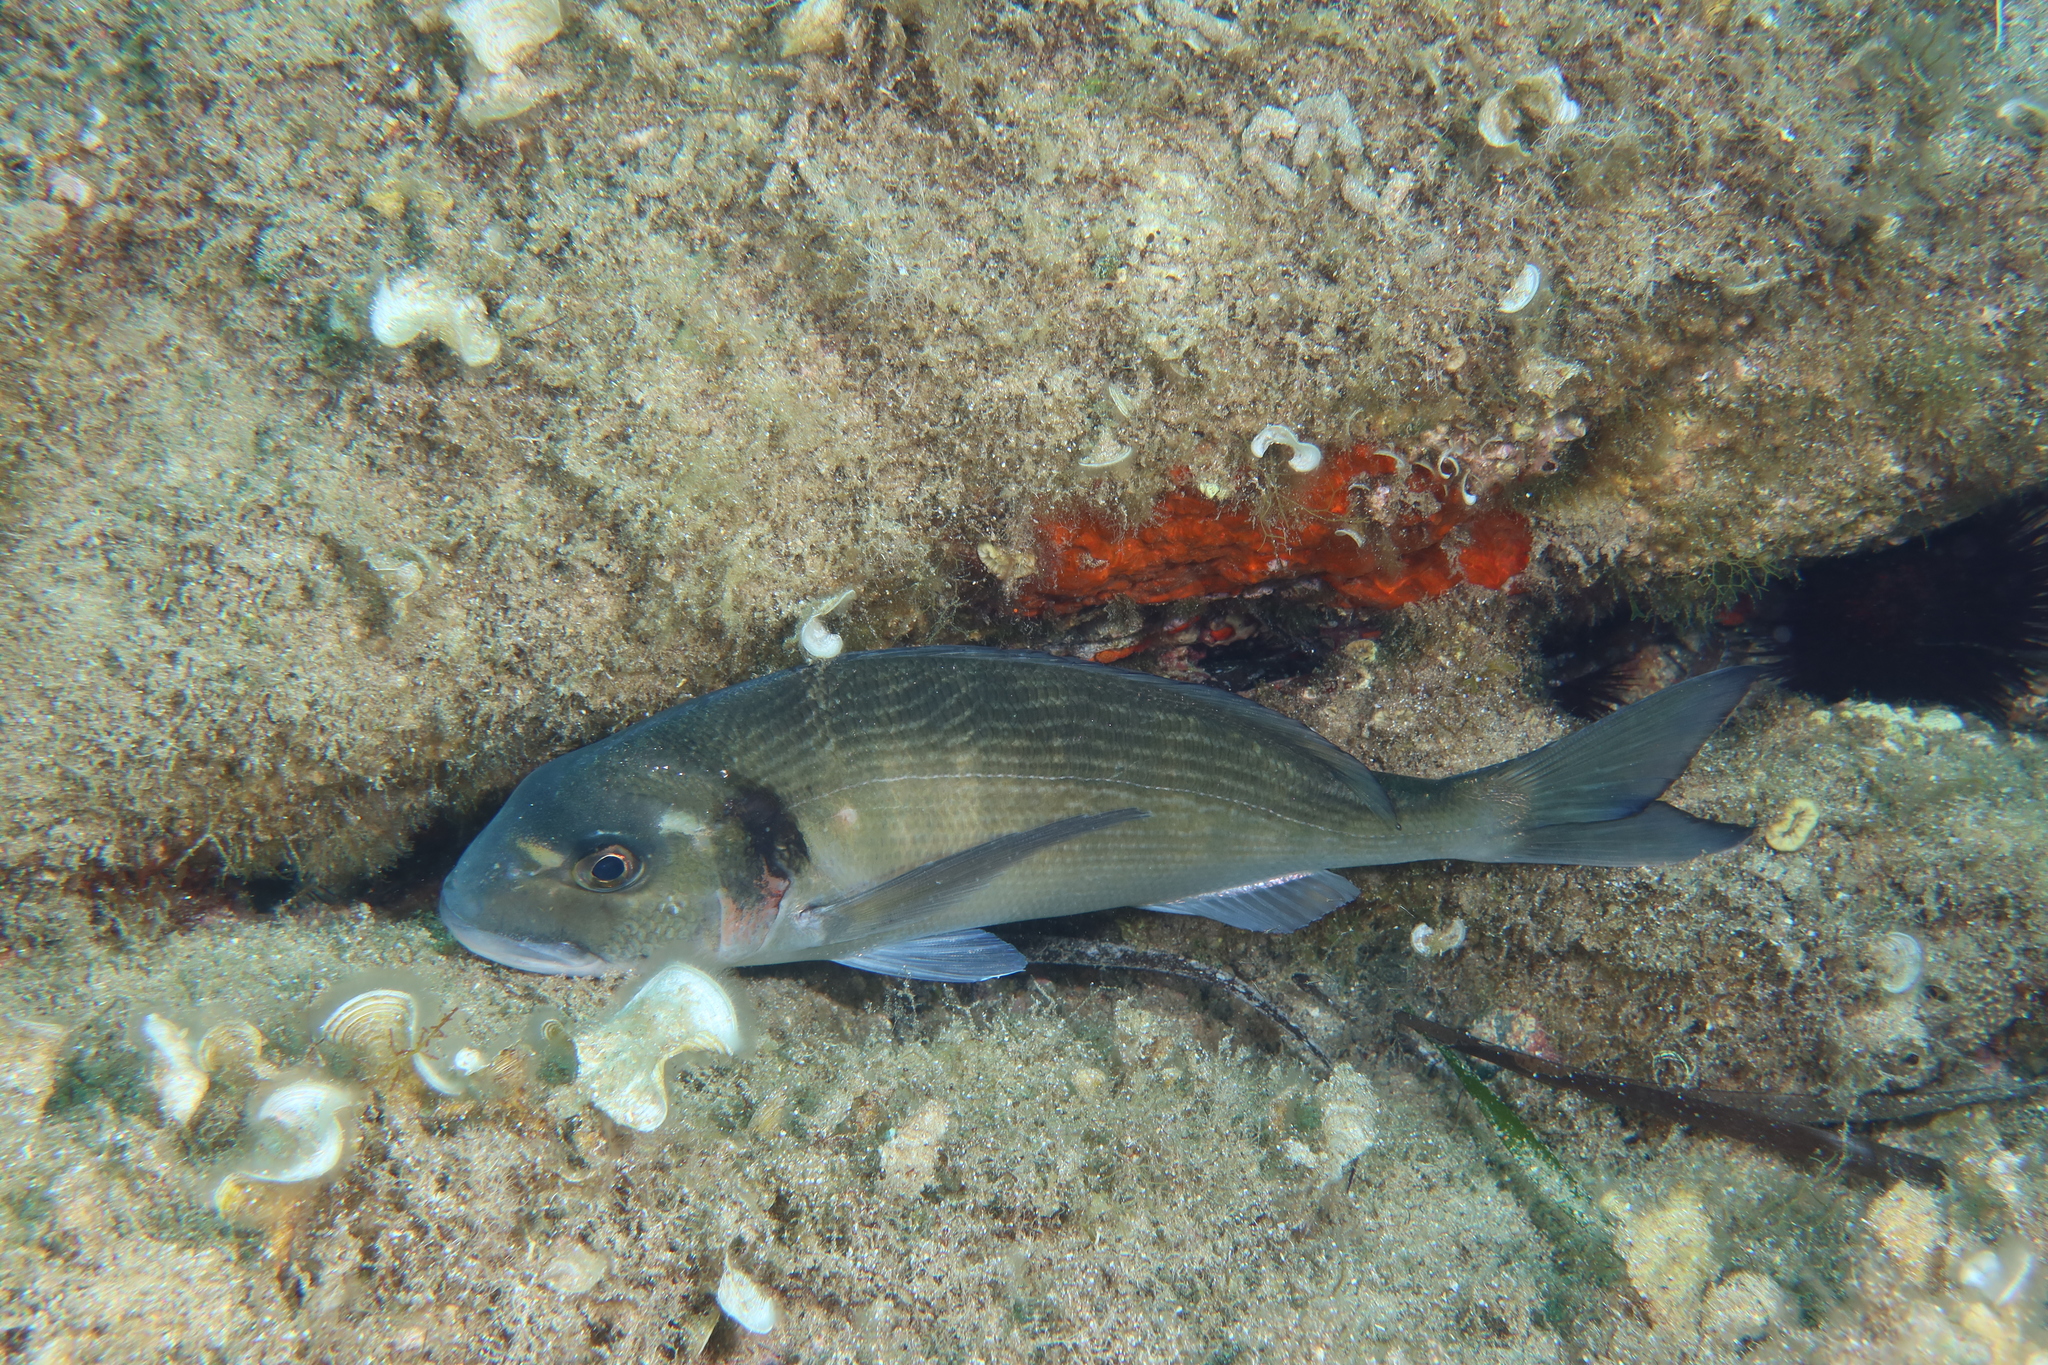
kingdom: Animalia
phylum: Chordata
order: Perciformes
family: Sparidae
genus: Sparus
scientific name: Sparus aurata
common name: Gilthead
